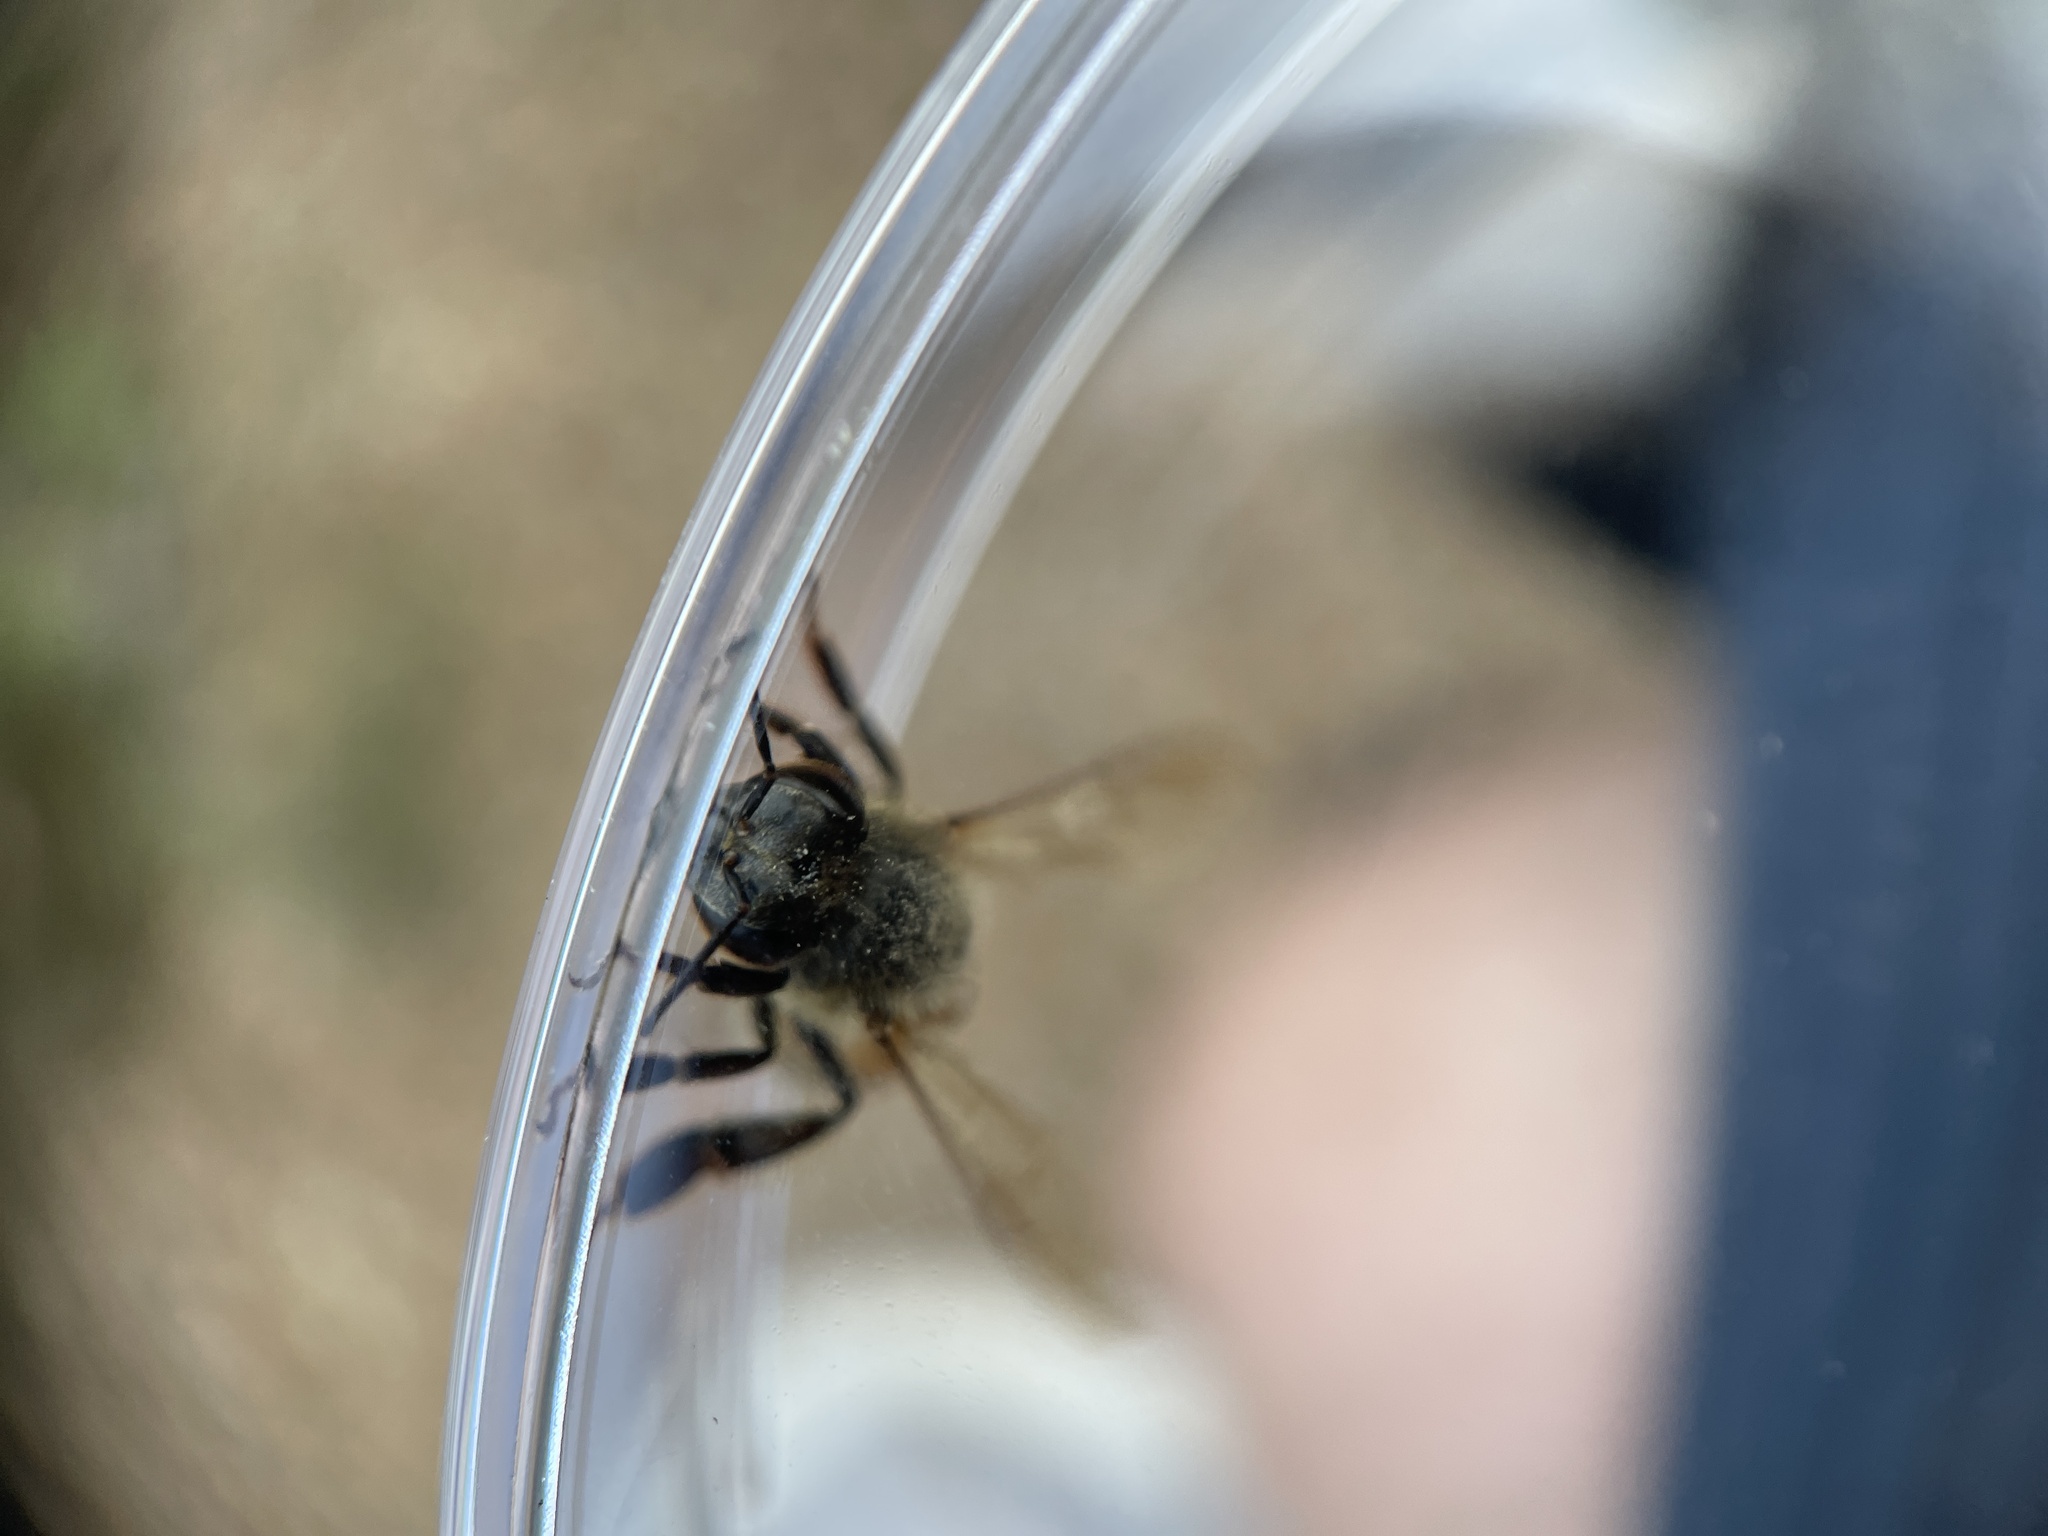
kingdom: Animalia
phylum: Arthropoda
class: Insecta
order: Hymenoptera
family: Apidae
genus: Apis
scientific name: Apis mellifera
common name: Honey bee
